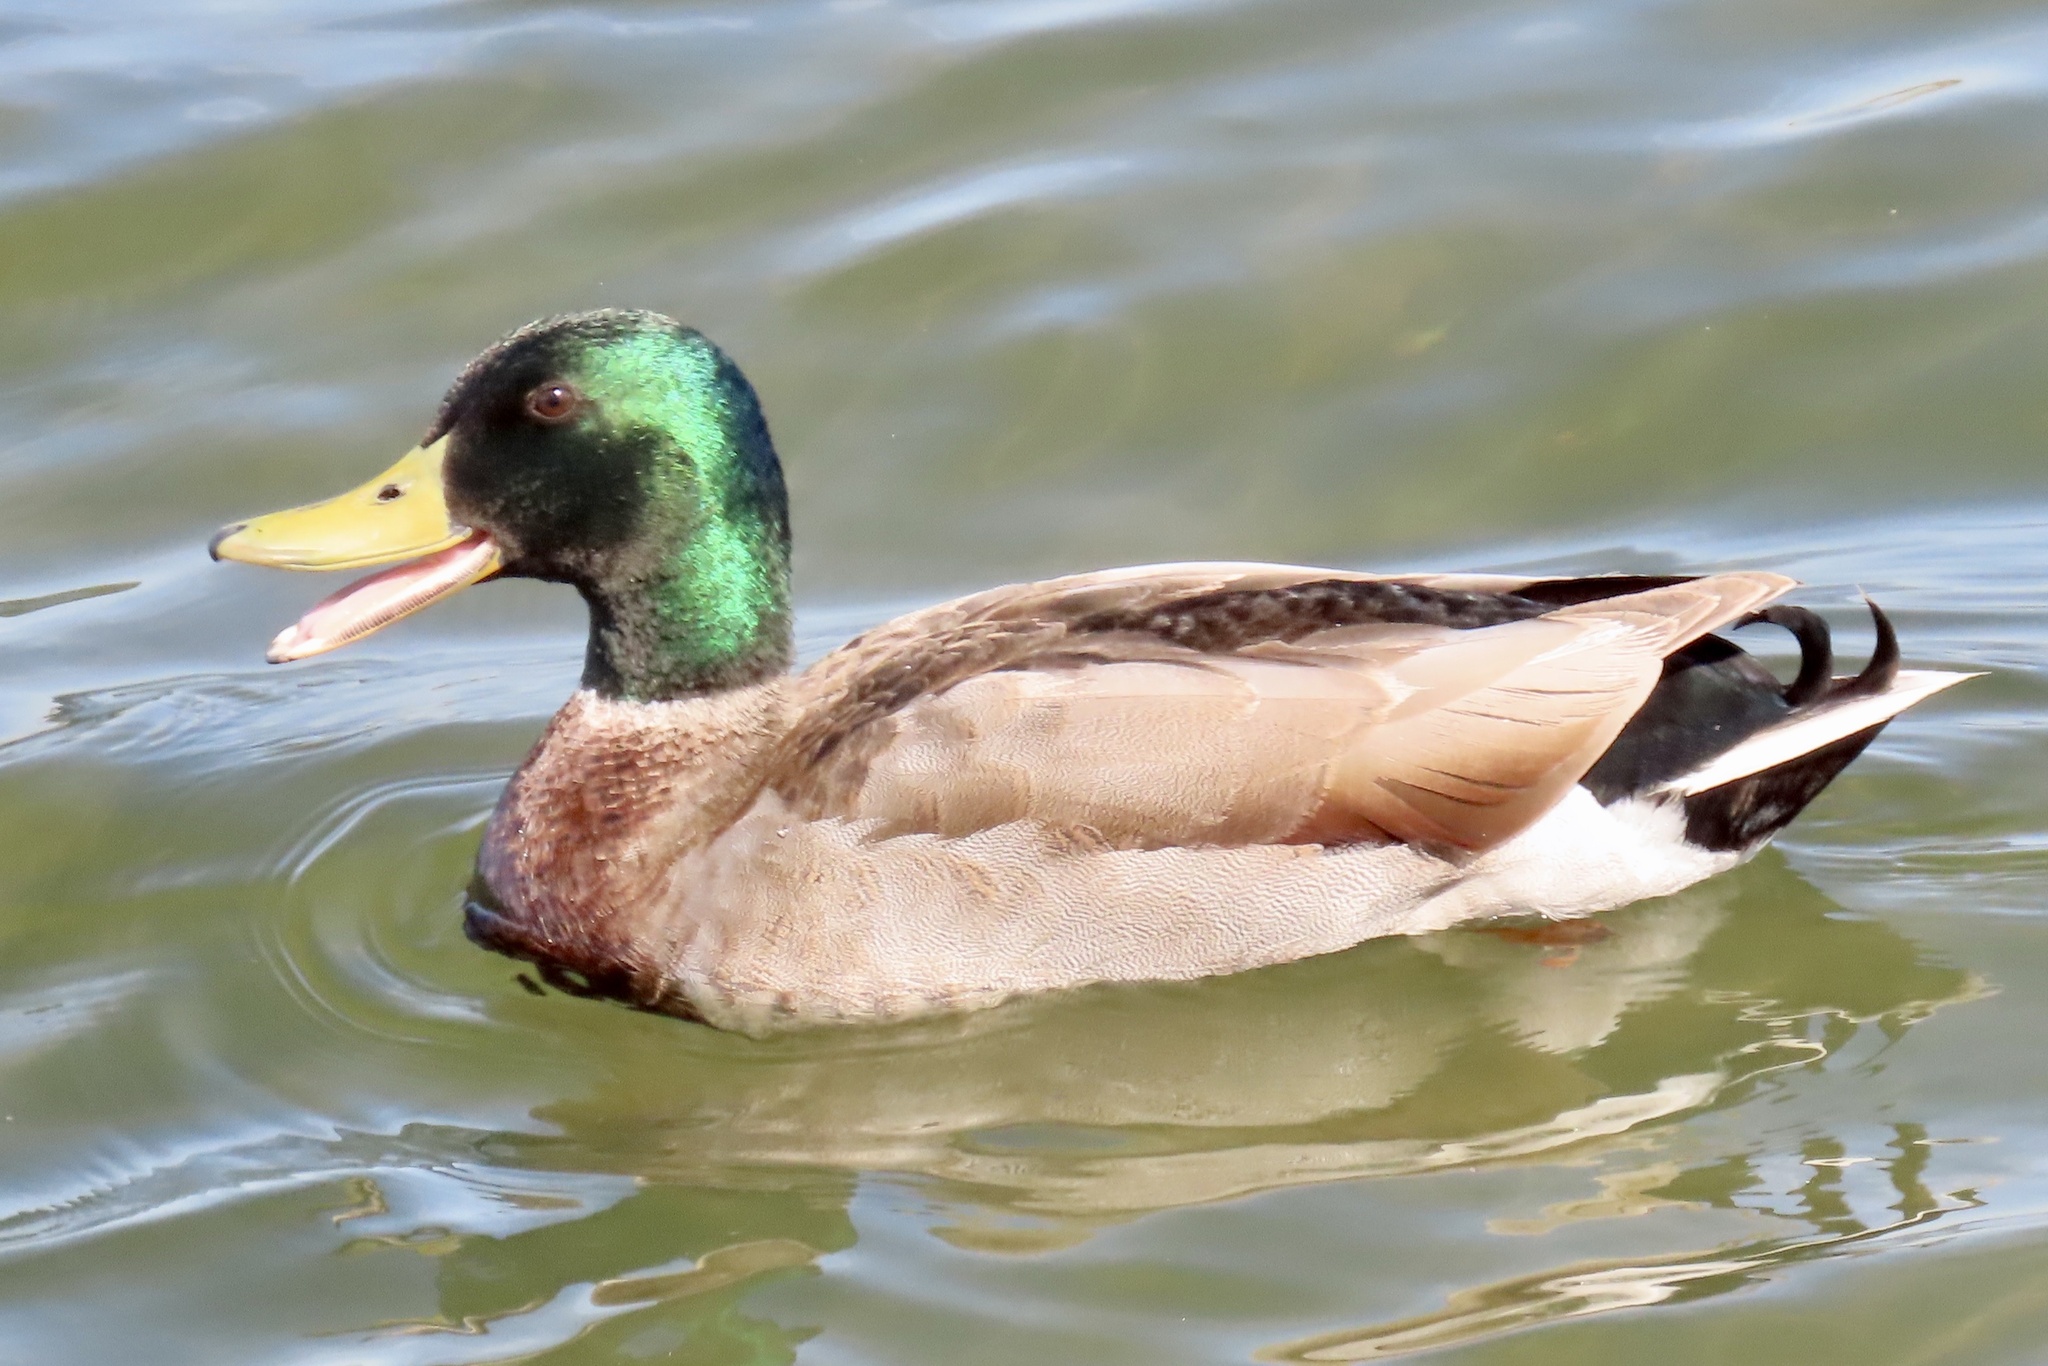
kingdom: Animalia
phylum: Chordata
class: Aves
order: Anseriformes
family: Anatidae
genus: Anas
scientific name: Anas platyrhynchos
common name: Mallard
